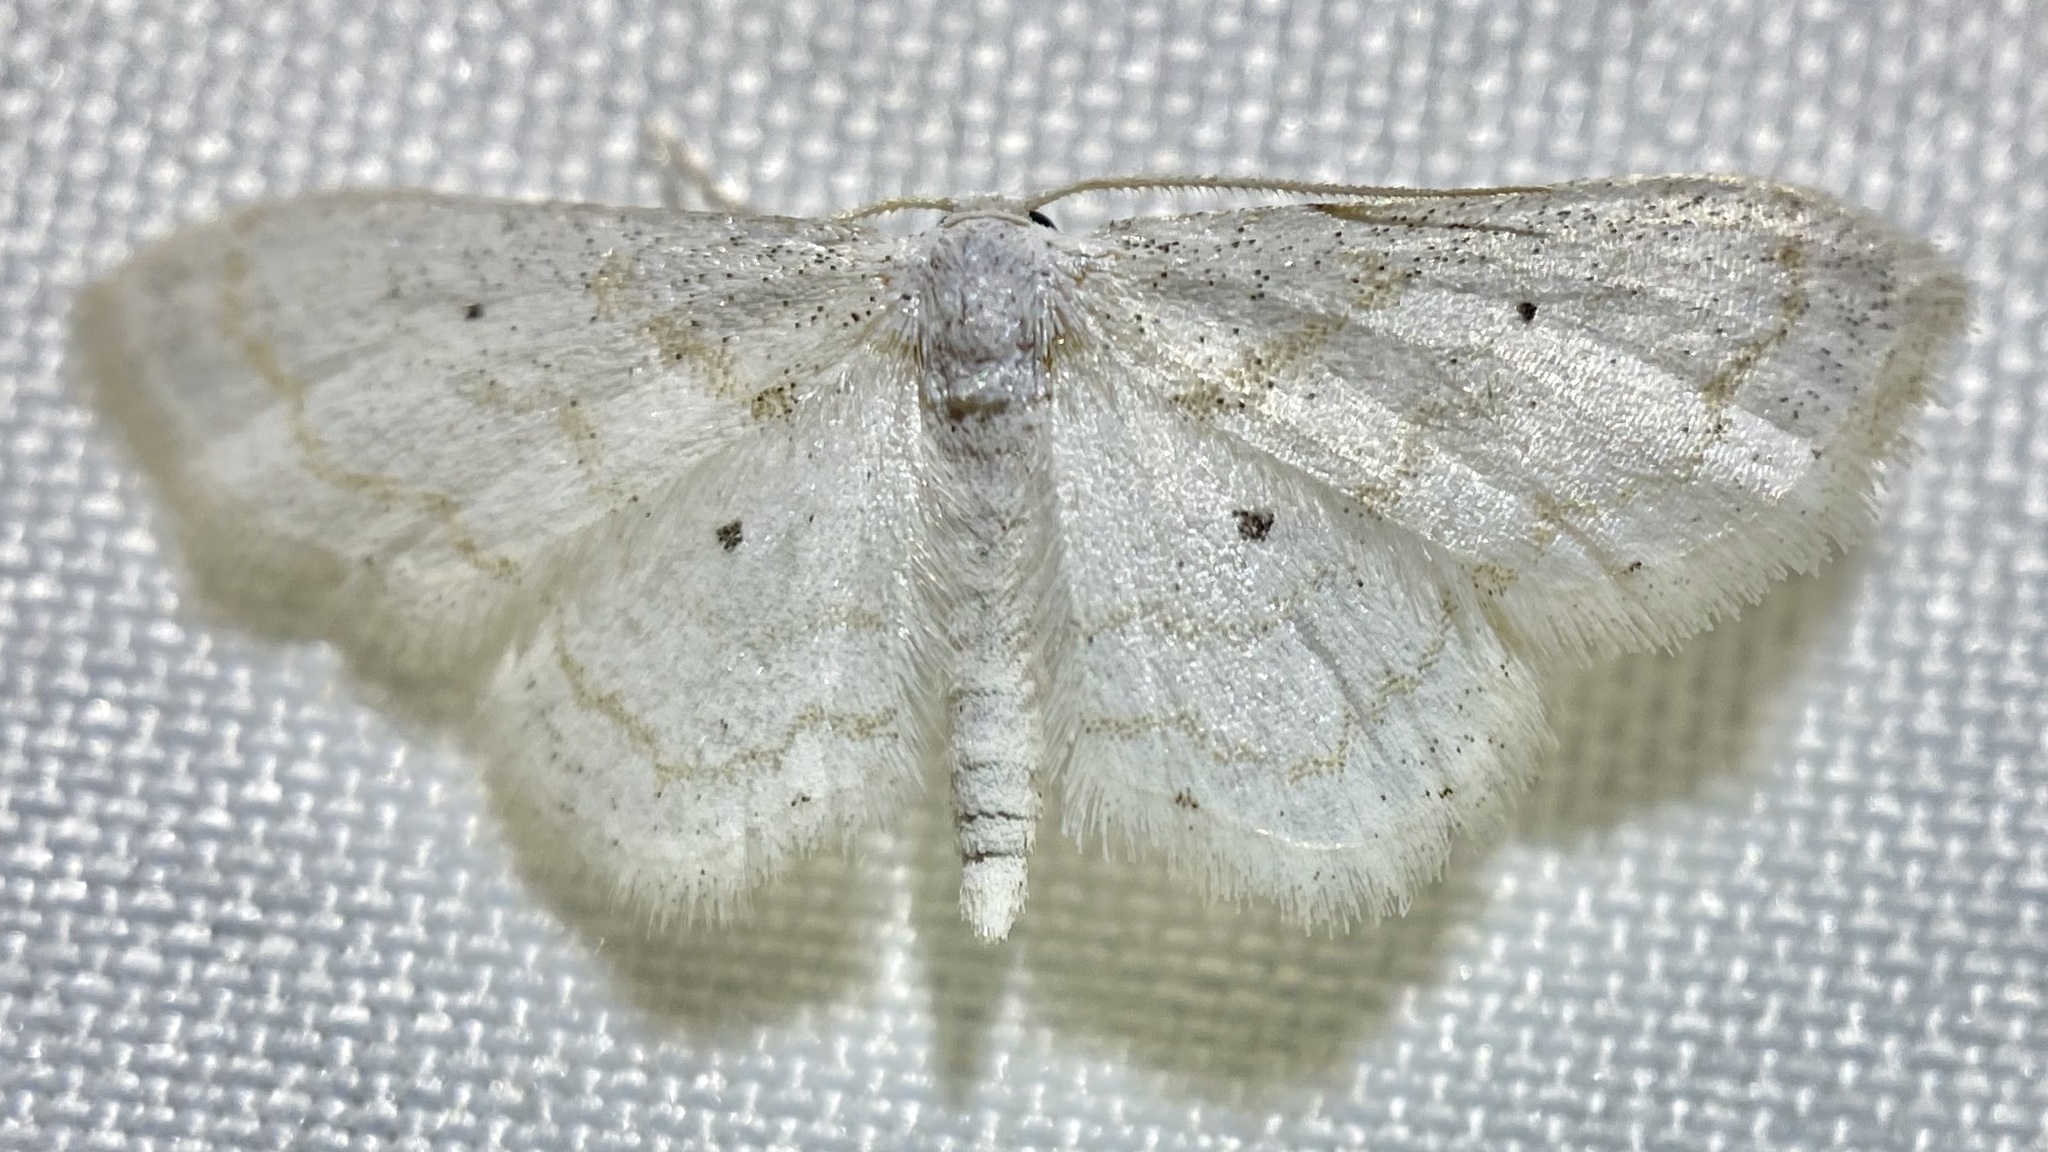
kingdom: Animalia
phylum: Arthropoda
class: Insecta
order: Lepidoptera
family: Geometridae
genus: Lobocleta
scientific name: Lobocleta peralbata
